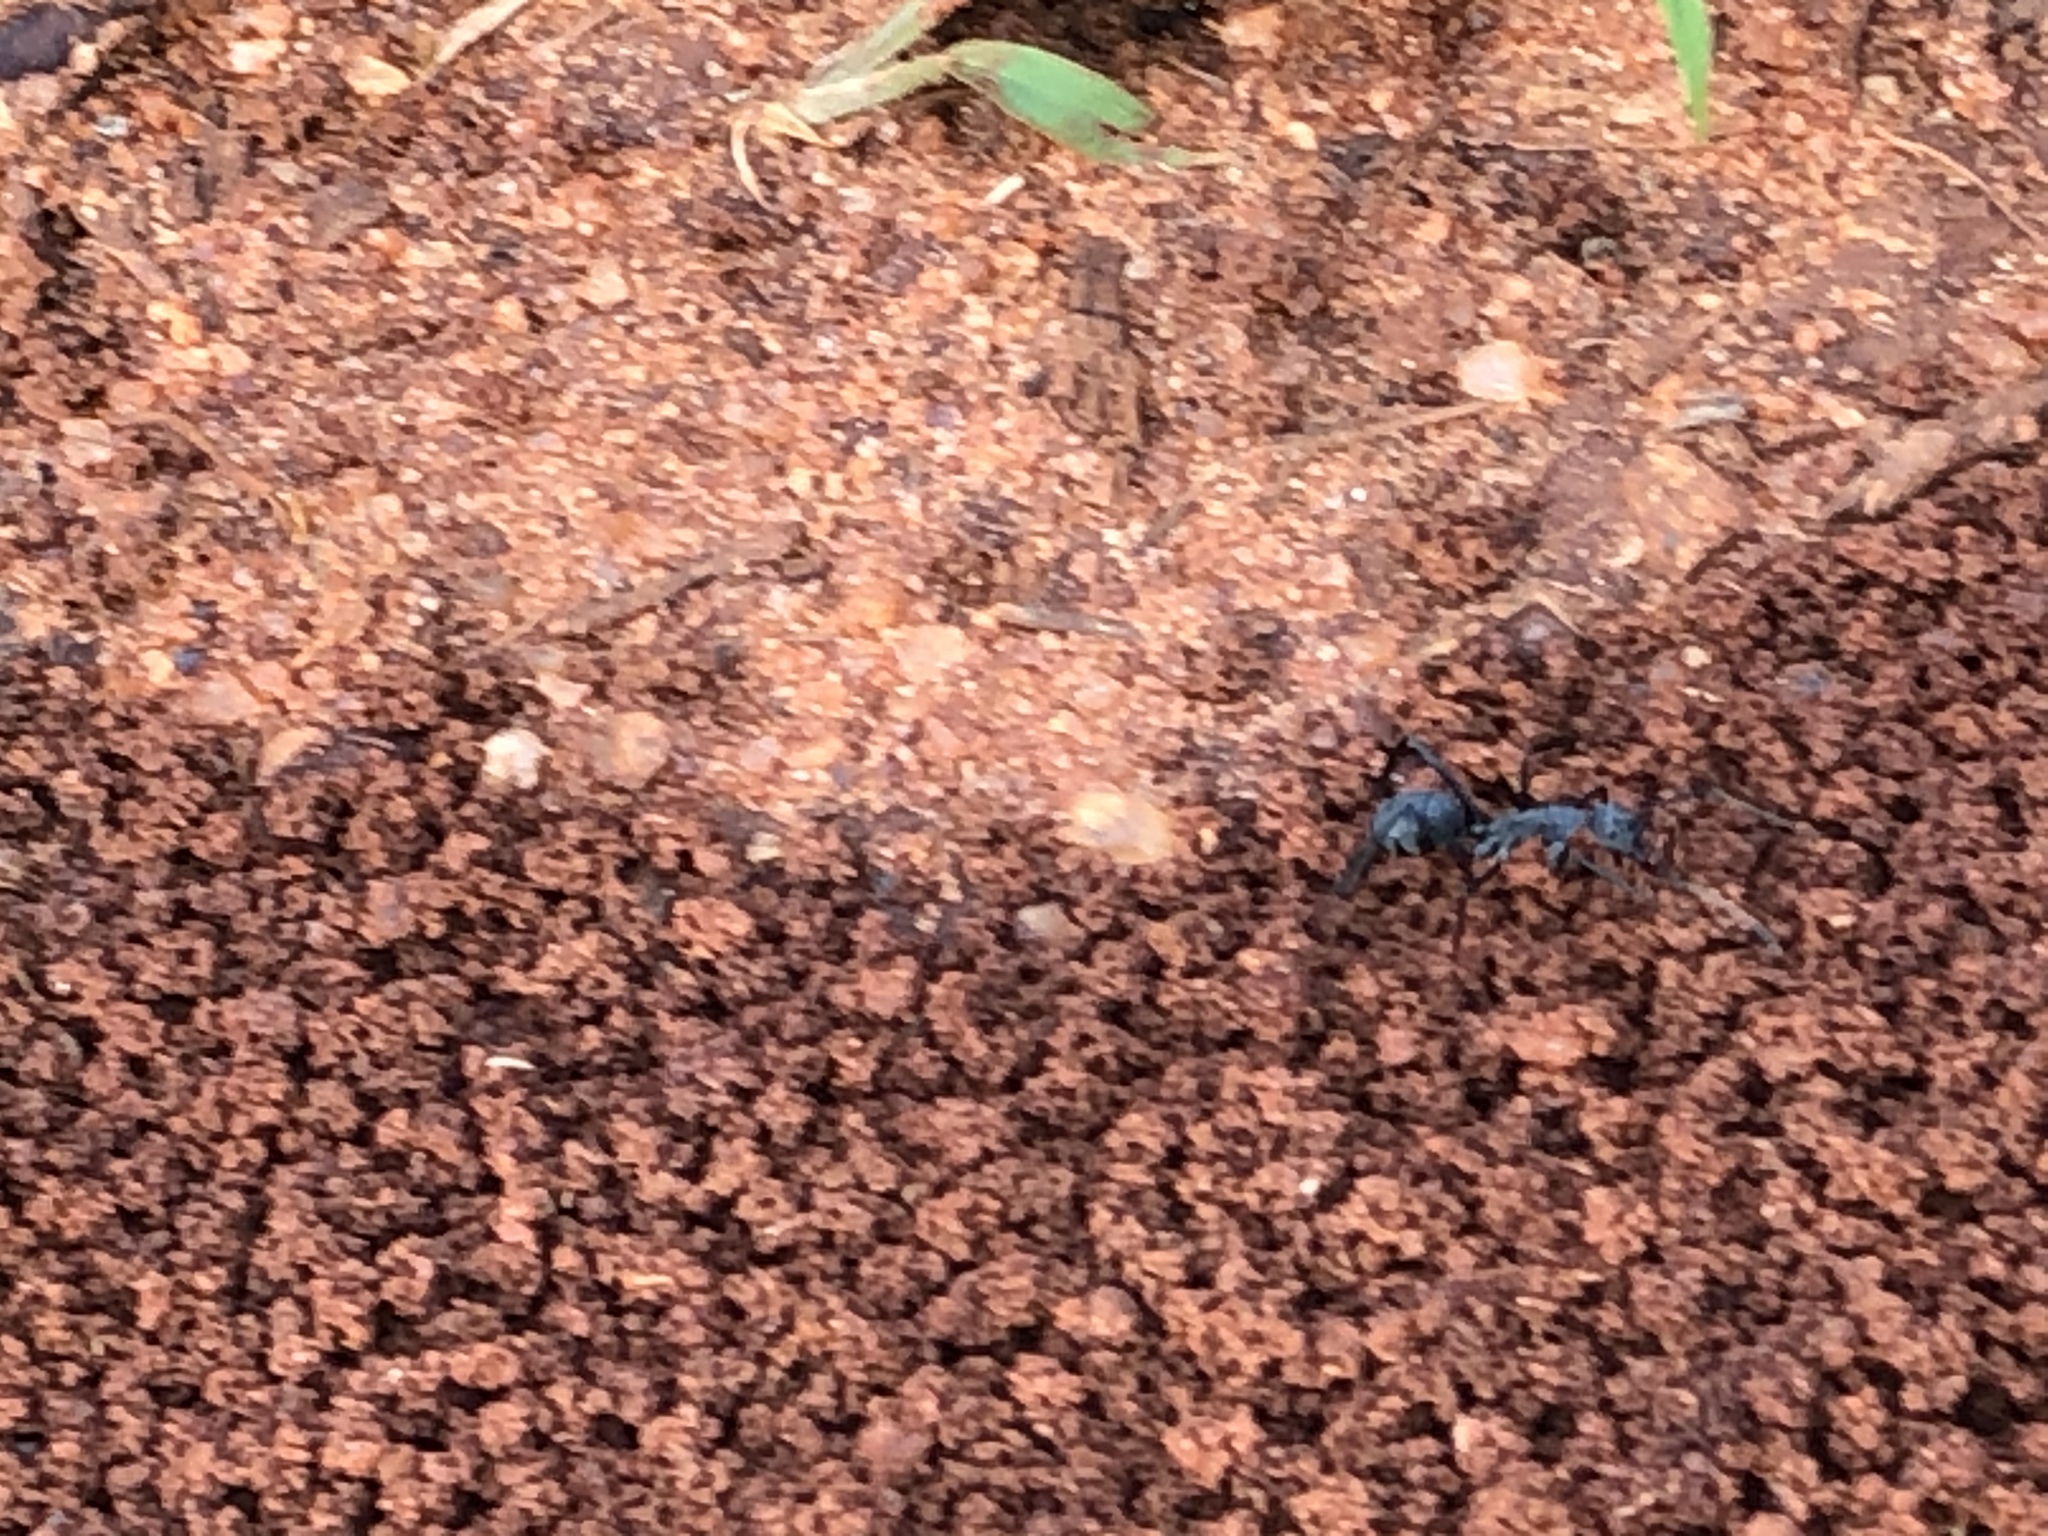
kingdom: Animalia
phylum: Arthropoda
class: Insecta
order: Hymenoptera
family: Formicidae
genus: Camponotus
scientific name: Camponotus eugeniae
